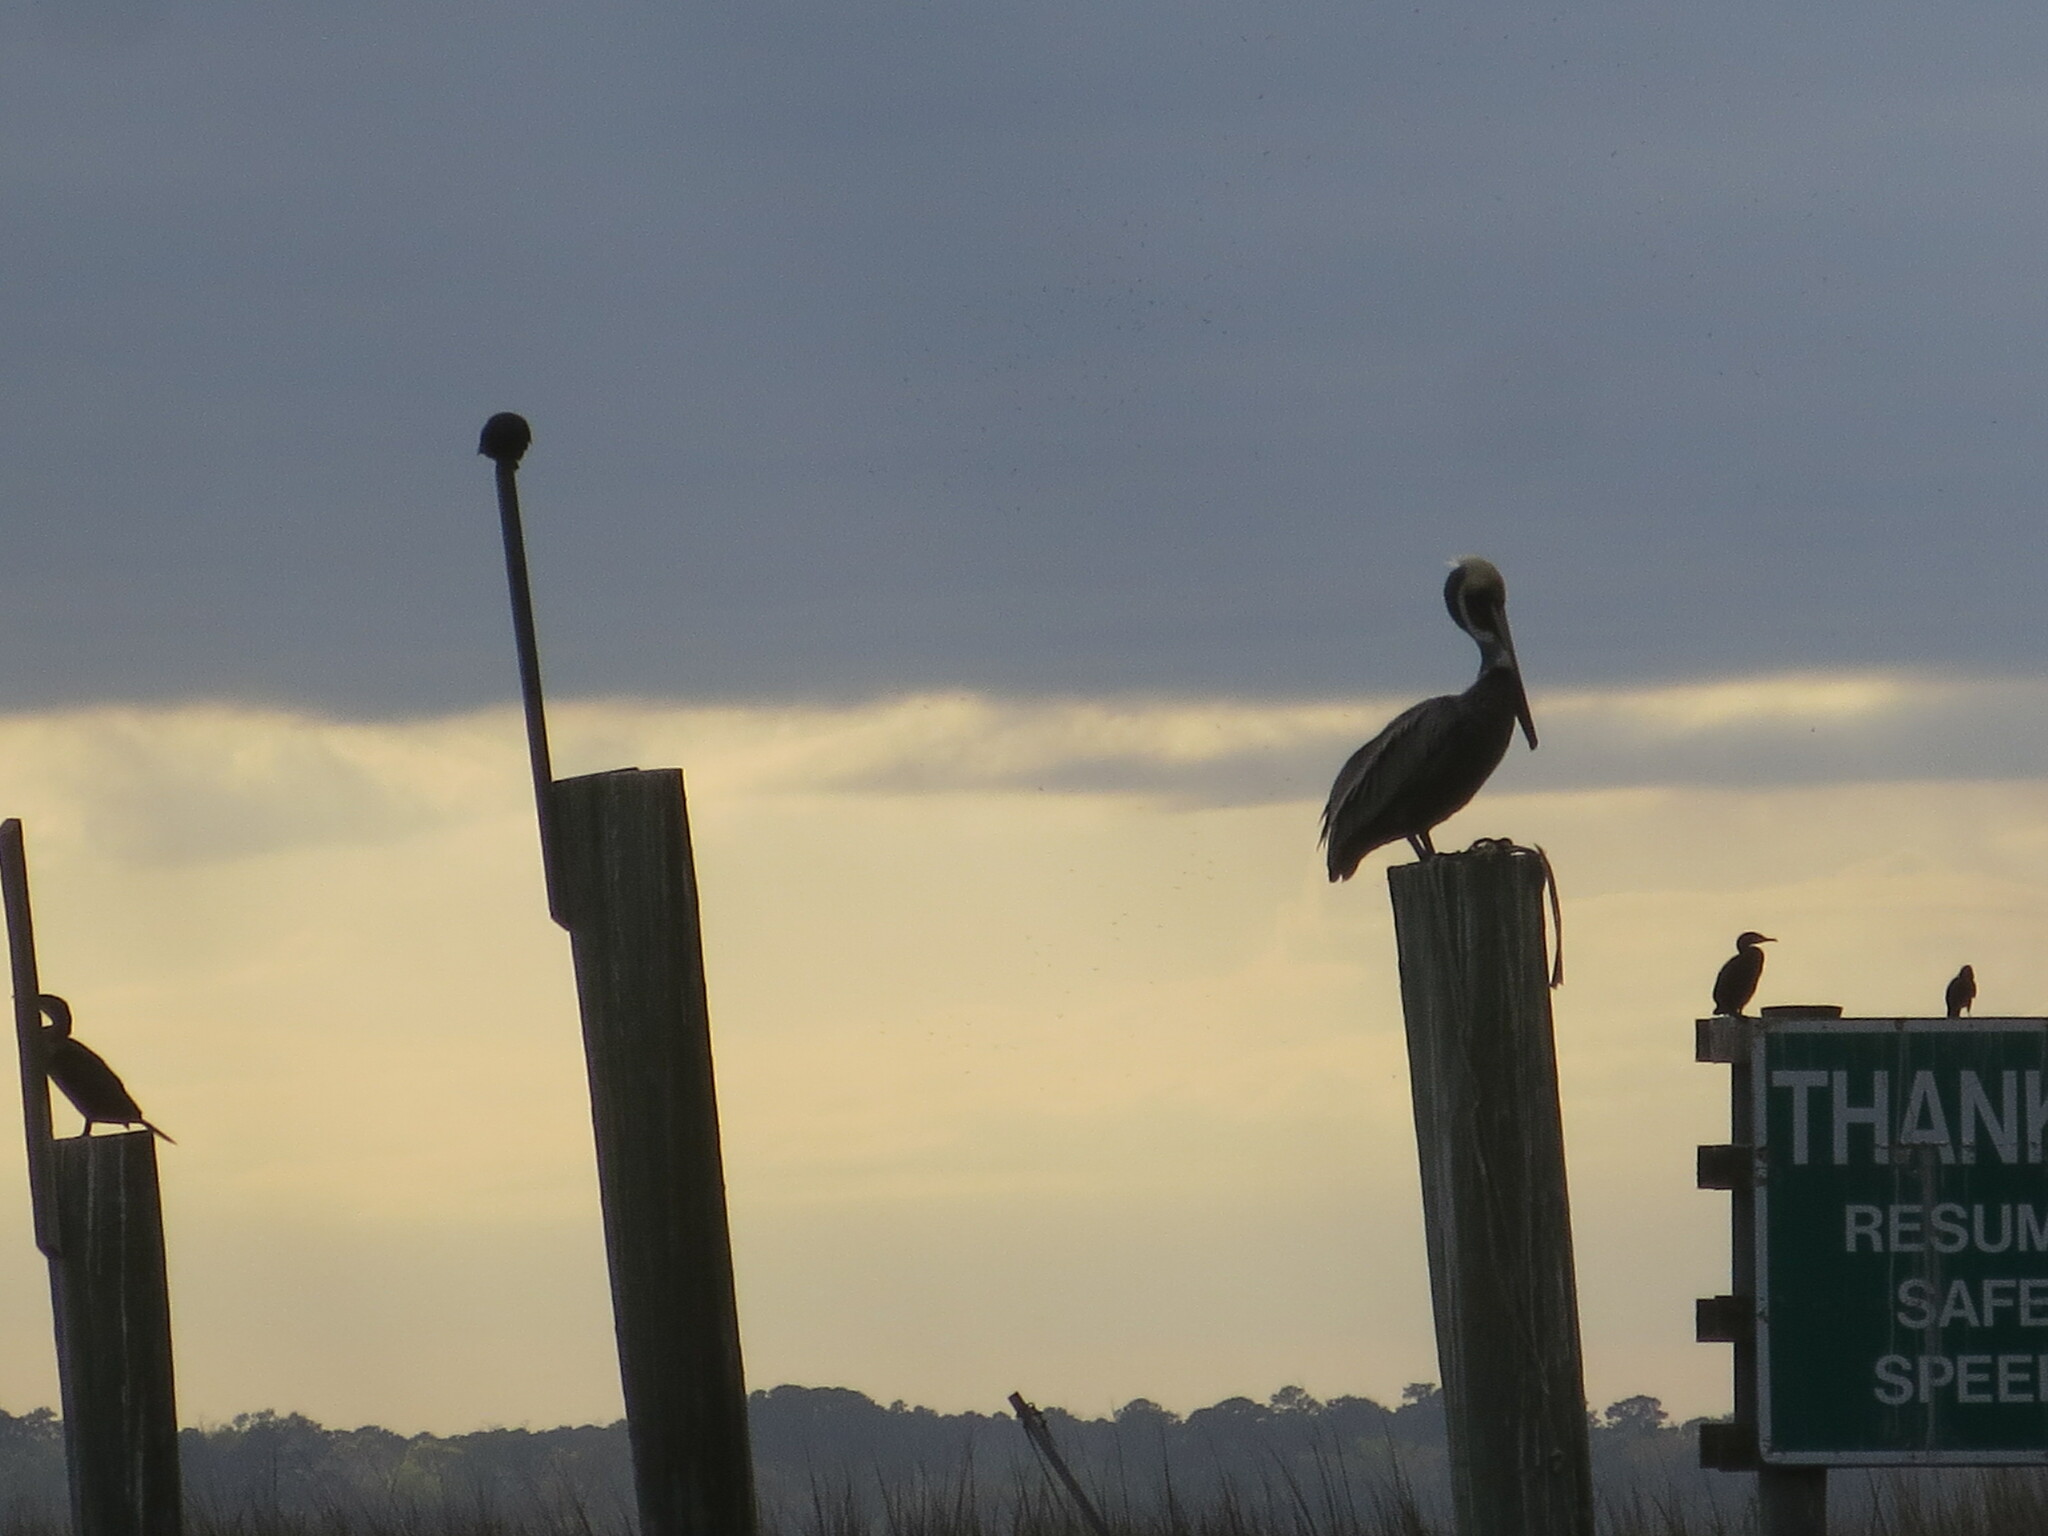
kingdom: Animalia
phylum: Chordata
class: Aves
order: Suliformes
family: Phalacrocoracidae
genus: Phalacrocorax
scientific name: Phalacrocorax auritus
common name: Double-crested cormorant
